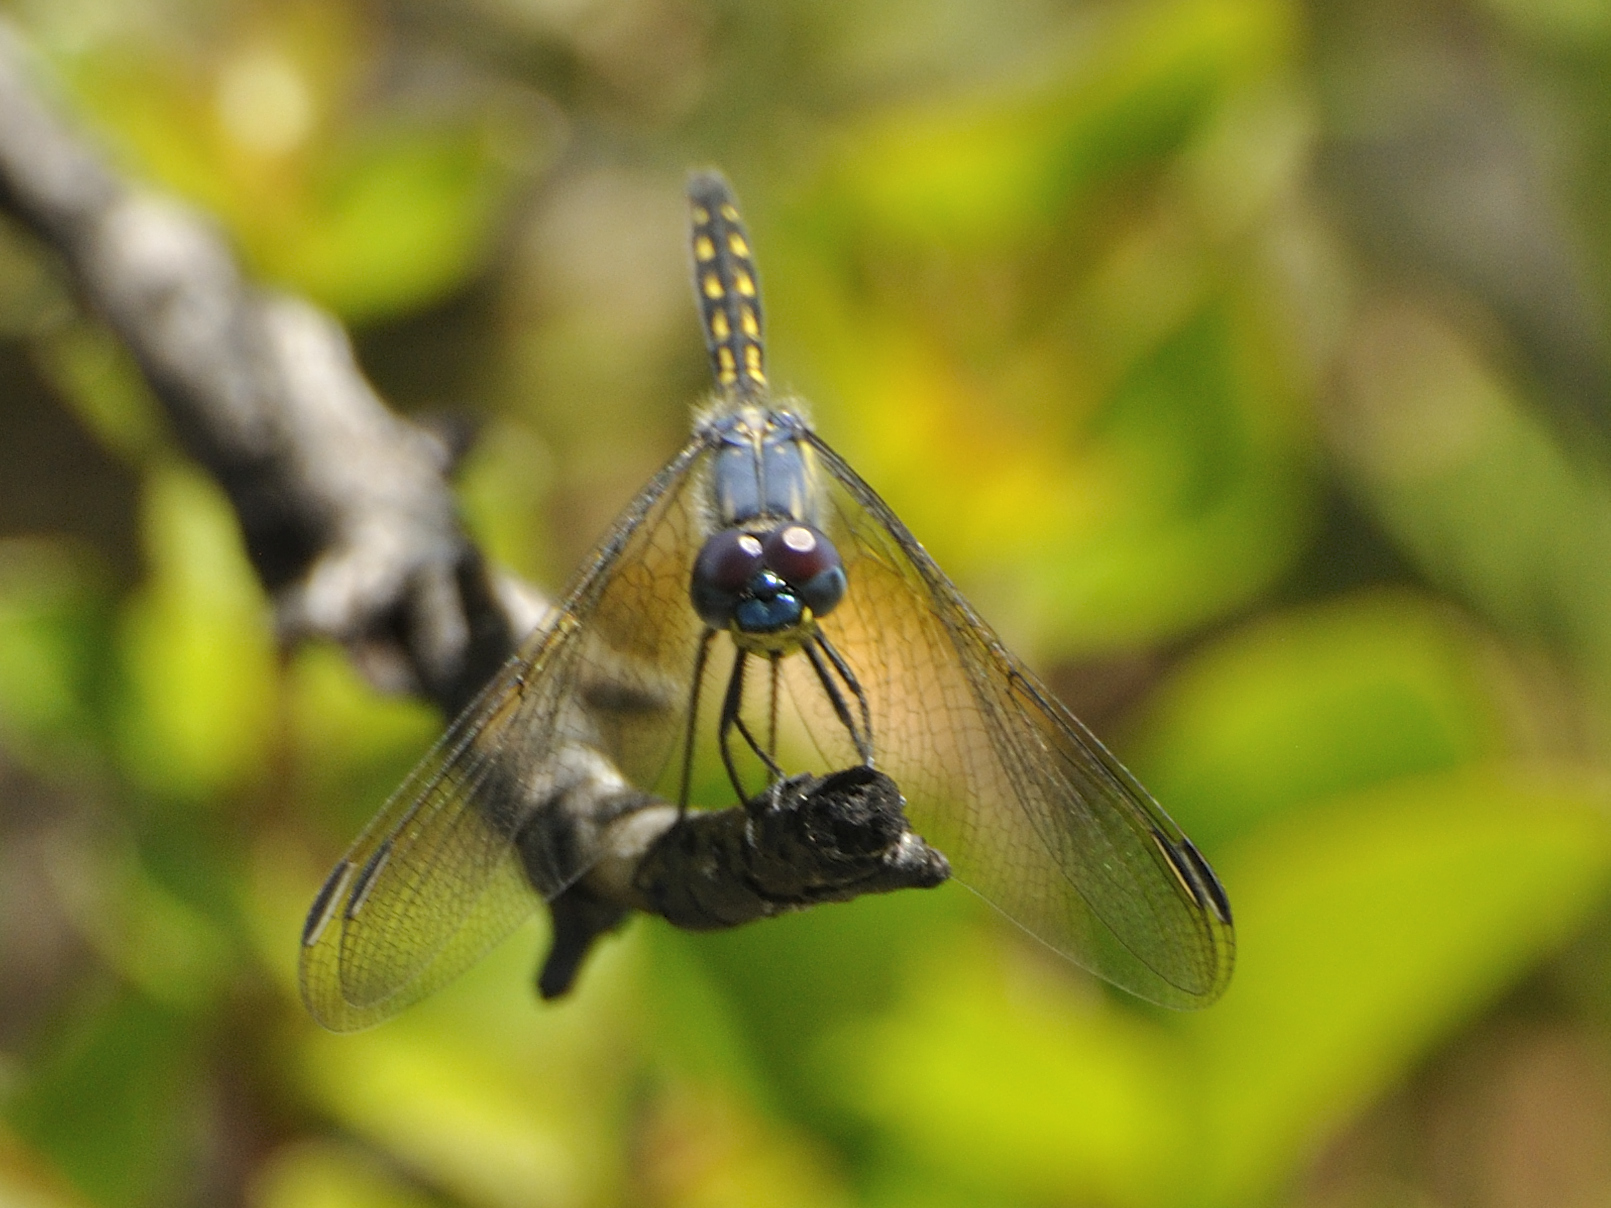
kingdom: Animalia
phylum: Arthropoda
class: Insecta
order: Odonata
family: Libellulidae
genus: Trithemis
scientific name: Trithemis stictica
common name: Jaunty dropwing
